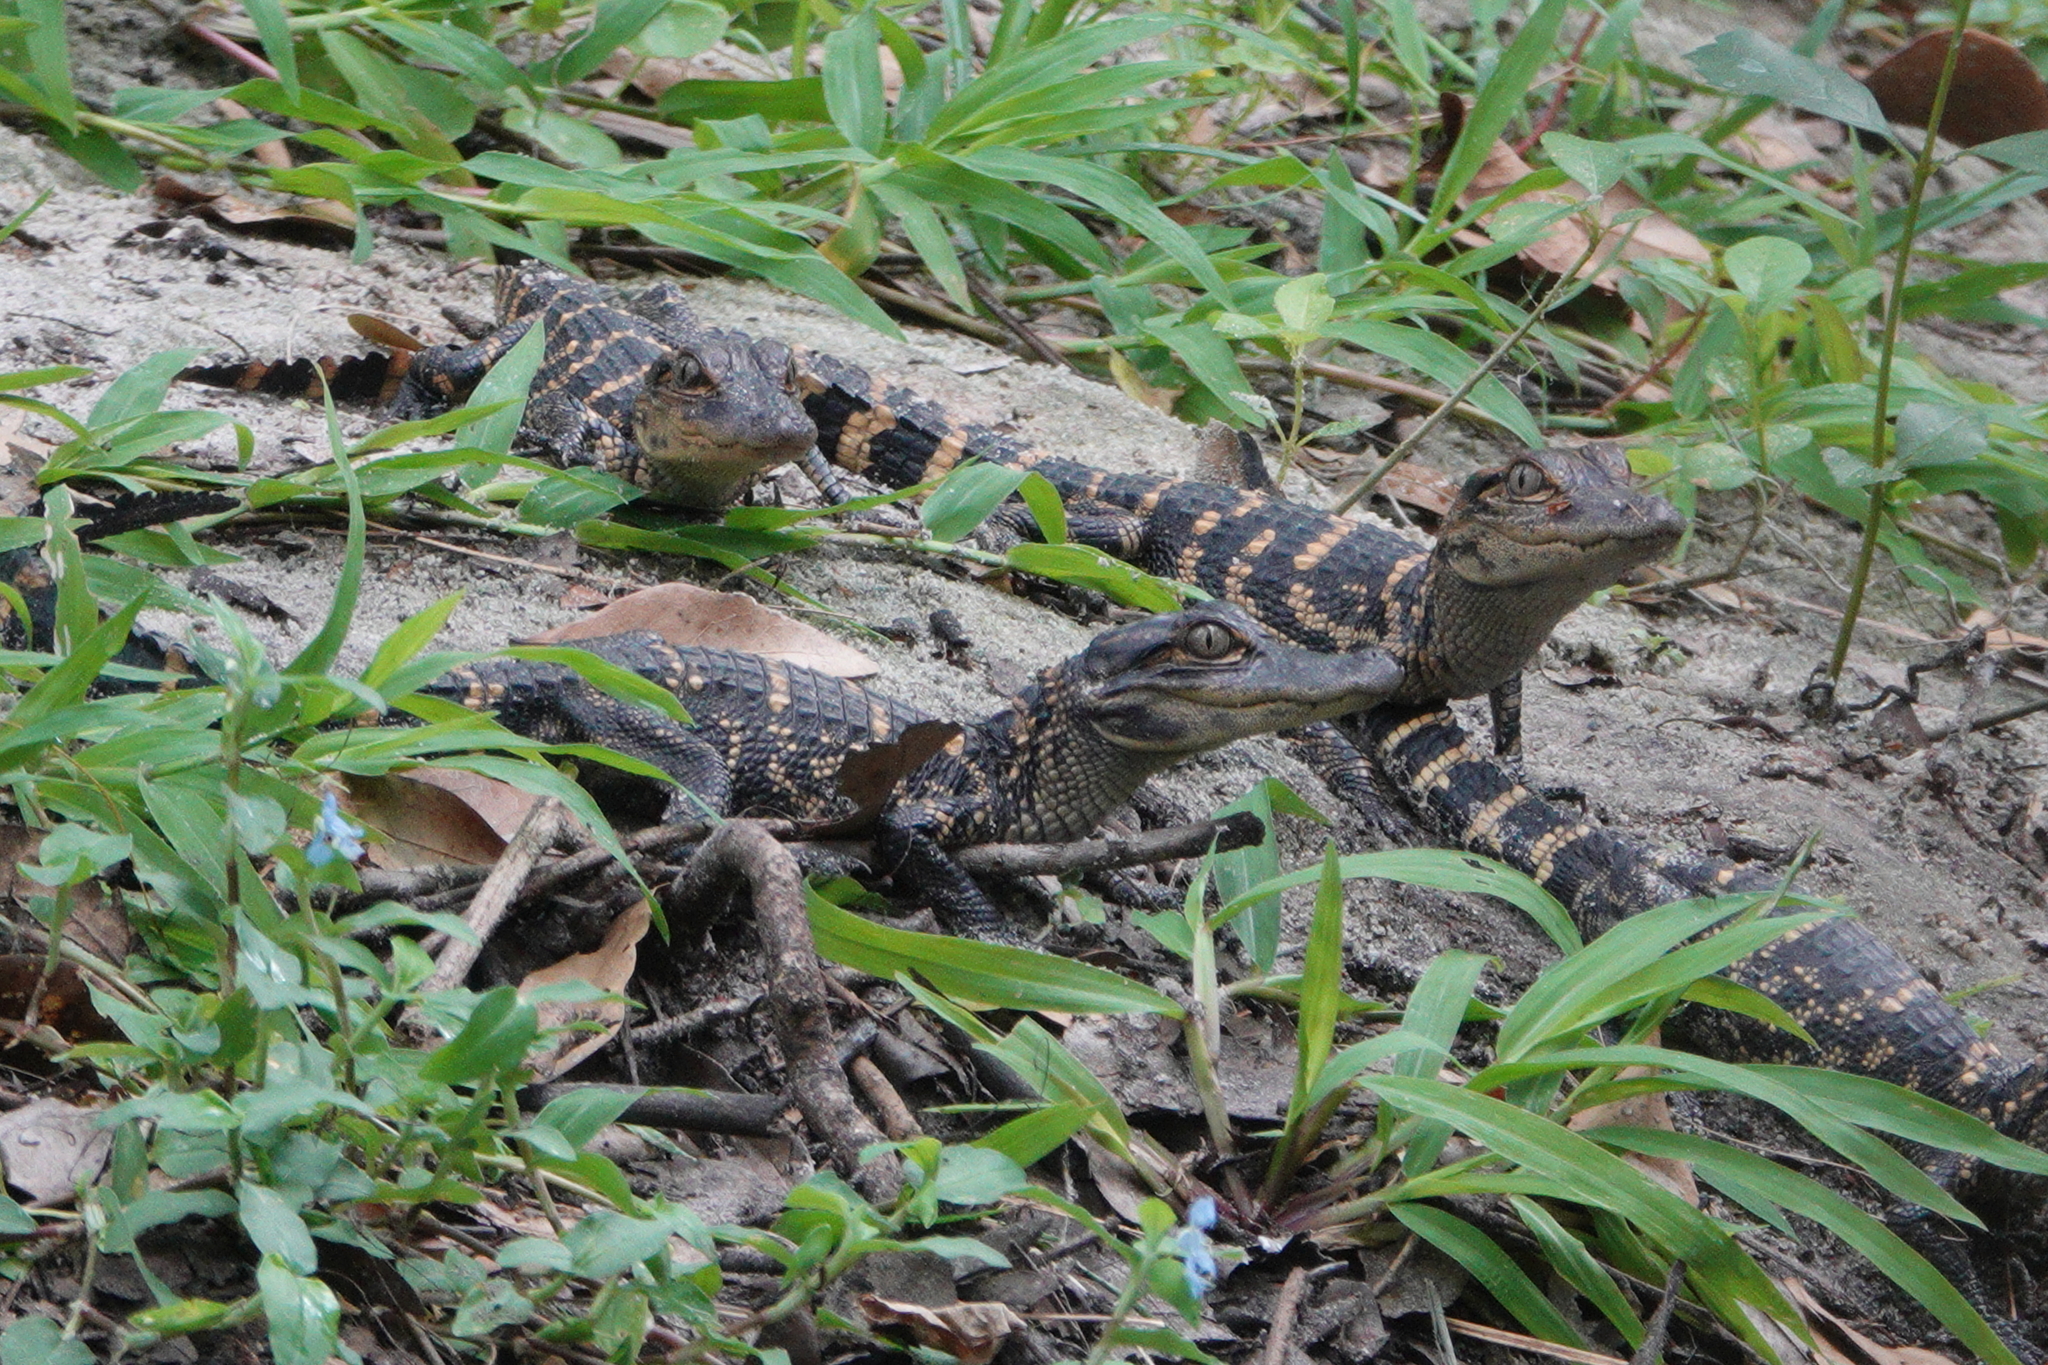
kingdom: Animalia
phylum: Chordata
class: Crocodylia
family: Alligatoridae
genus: Alligator
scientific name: Alligator mississippiensis
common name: American alligator
